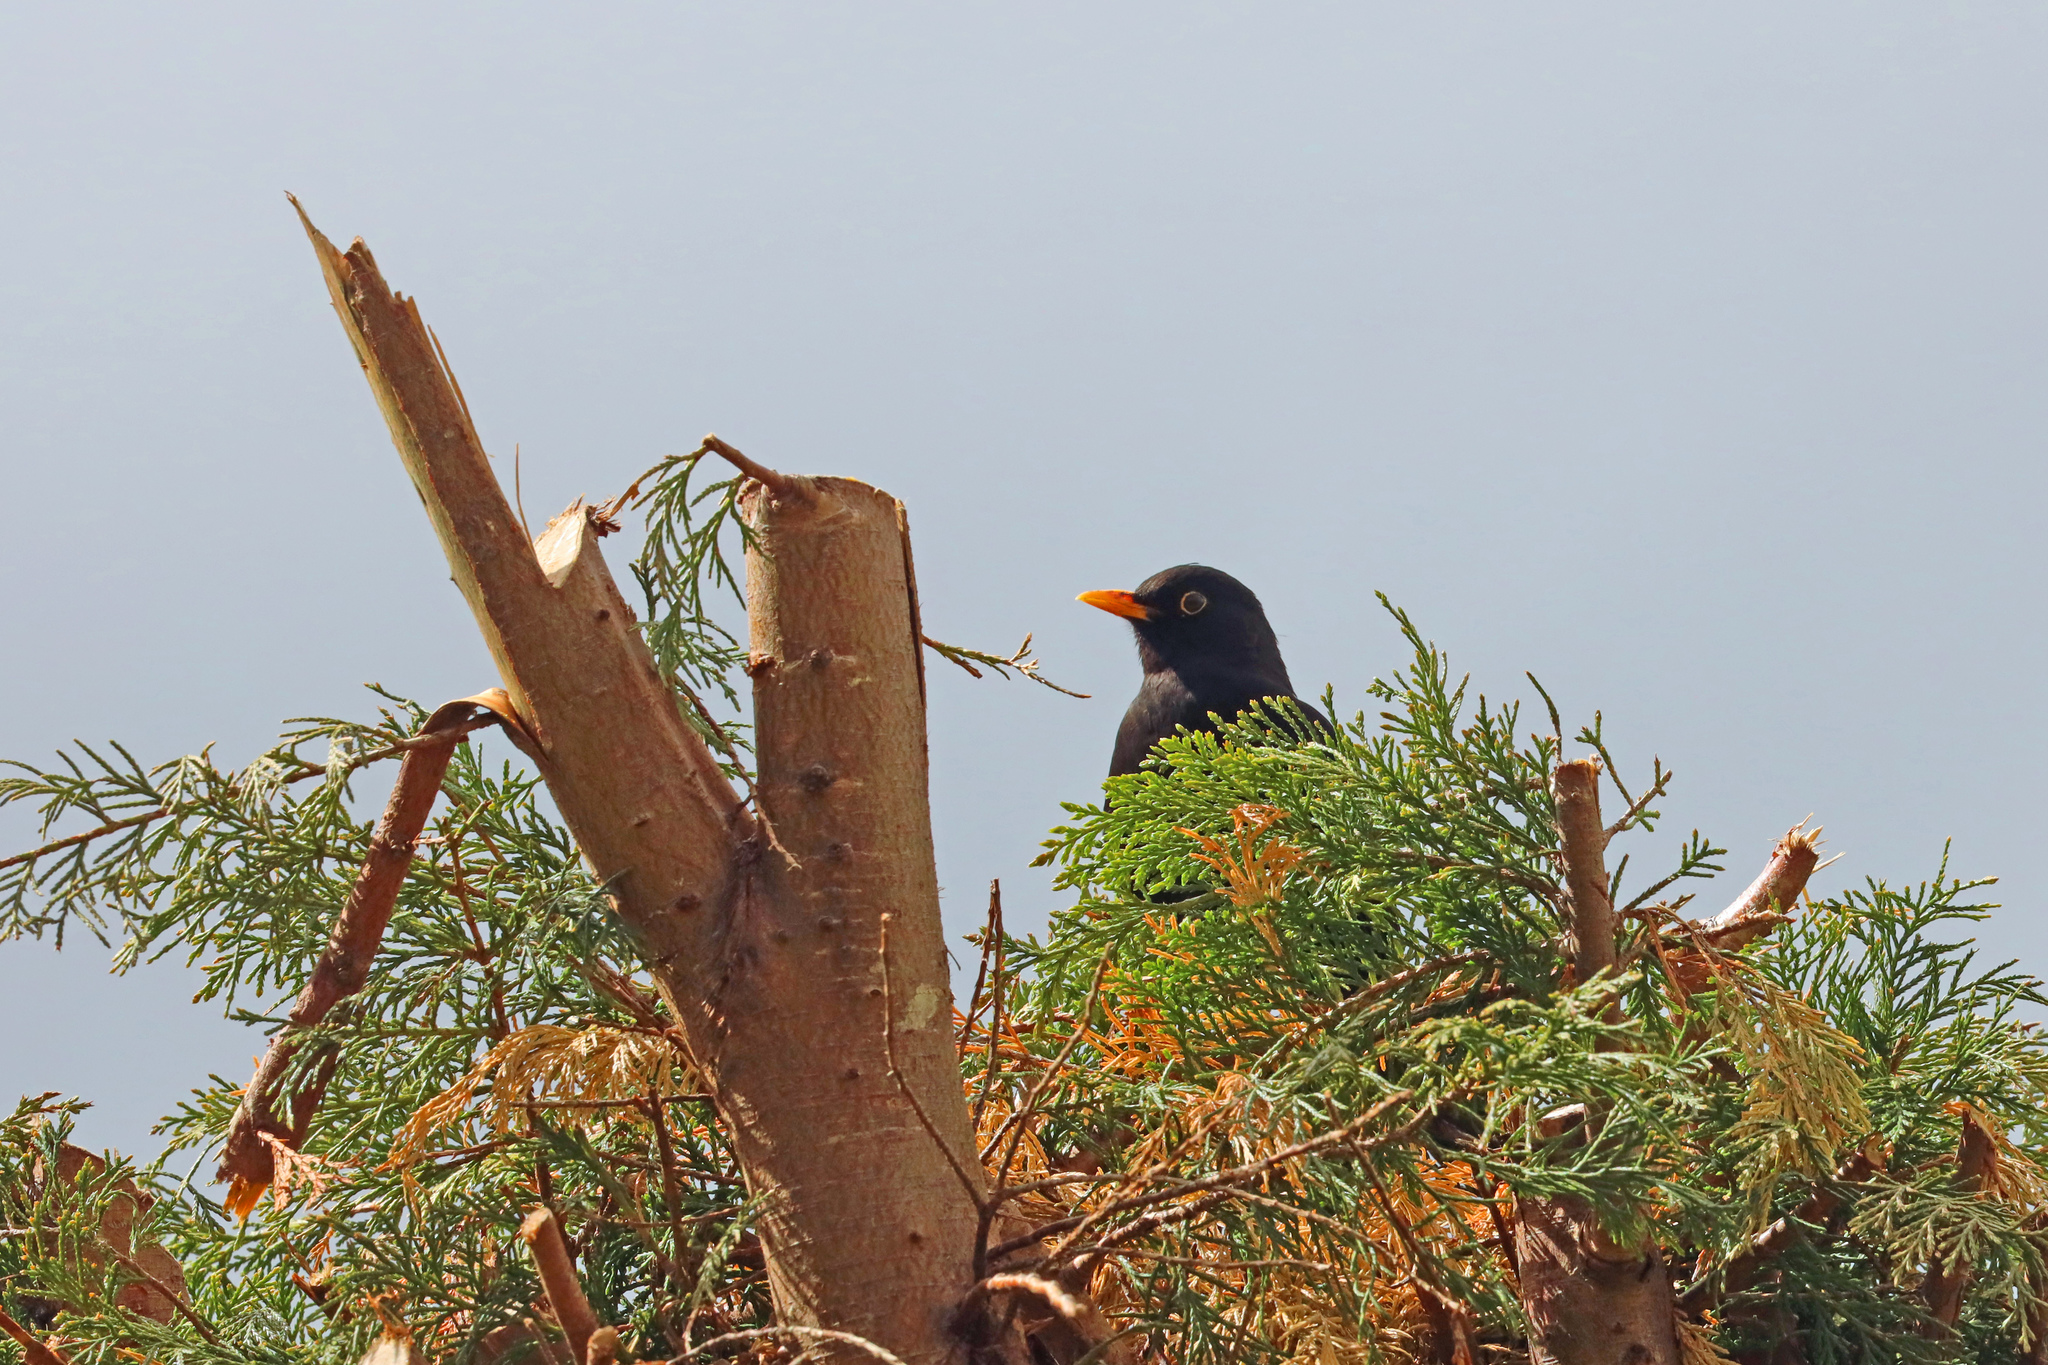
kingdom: Animalia
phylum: Chordata
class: Aves
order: Passeriformes
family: Turdidae
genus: Turdus
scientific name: Turdus merula
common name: Common blackbird
